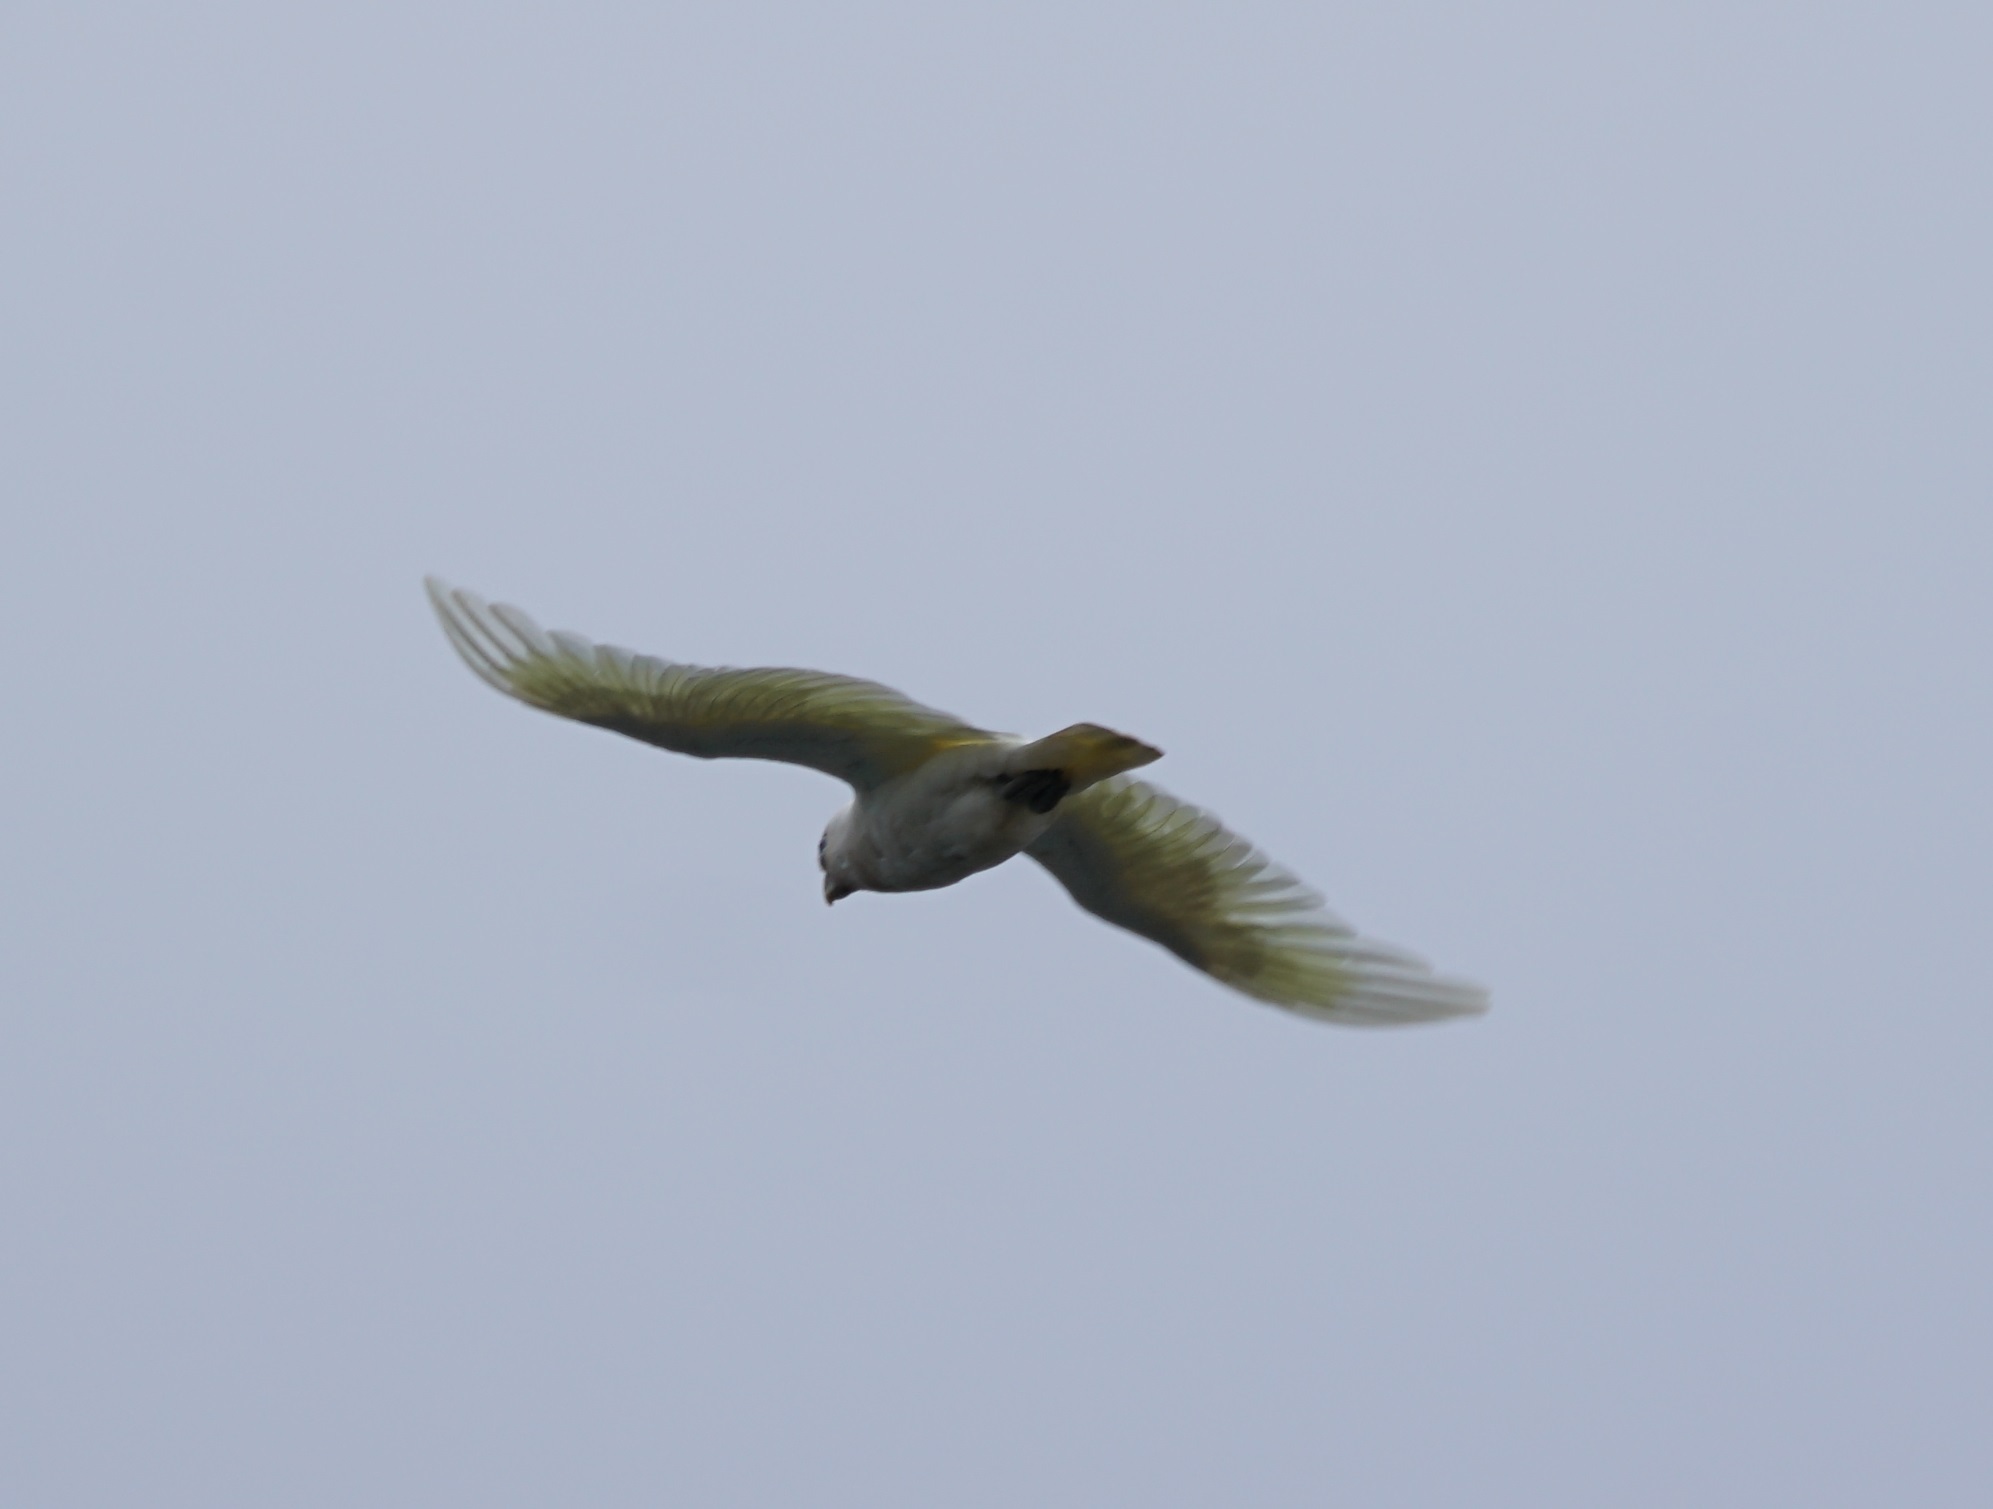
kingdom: Animalia
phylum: Chordata
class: Aves
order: Psittaciformes
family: Psittacidae
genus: Cacatua
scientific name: Cacatua sanguinea
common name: Little corella
